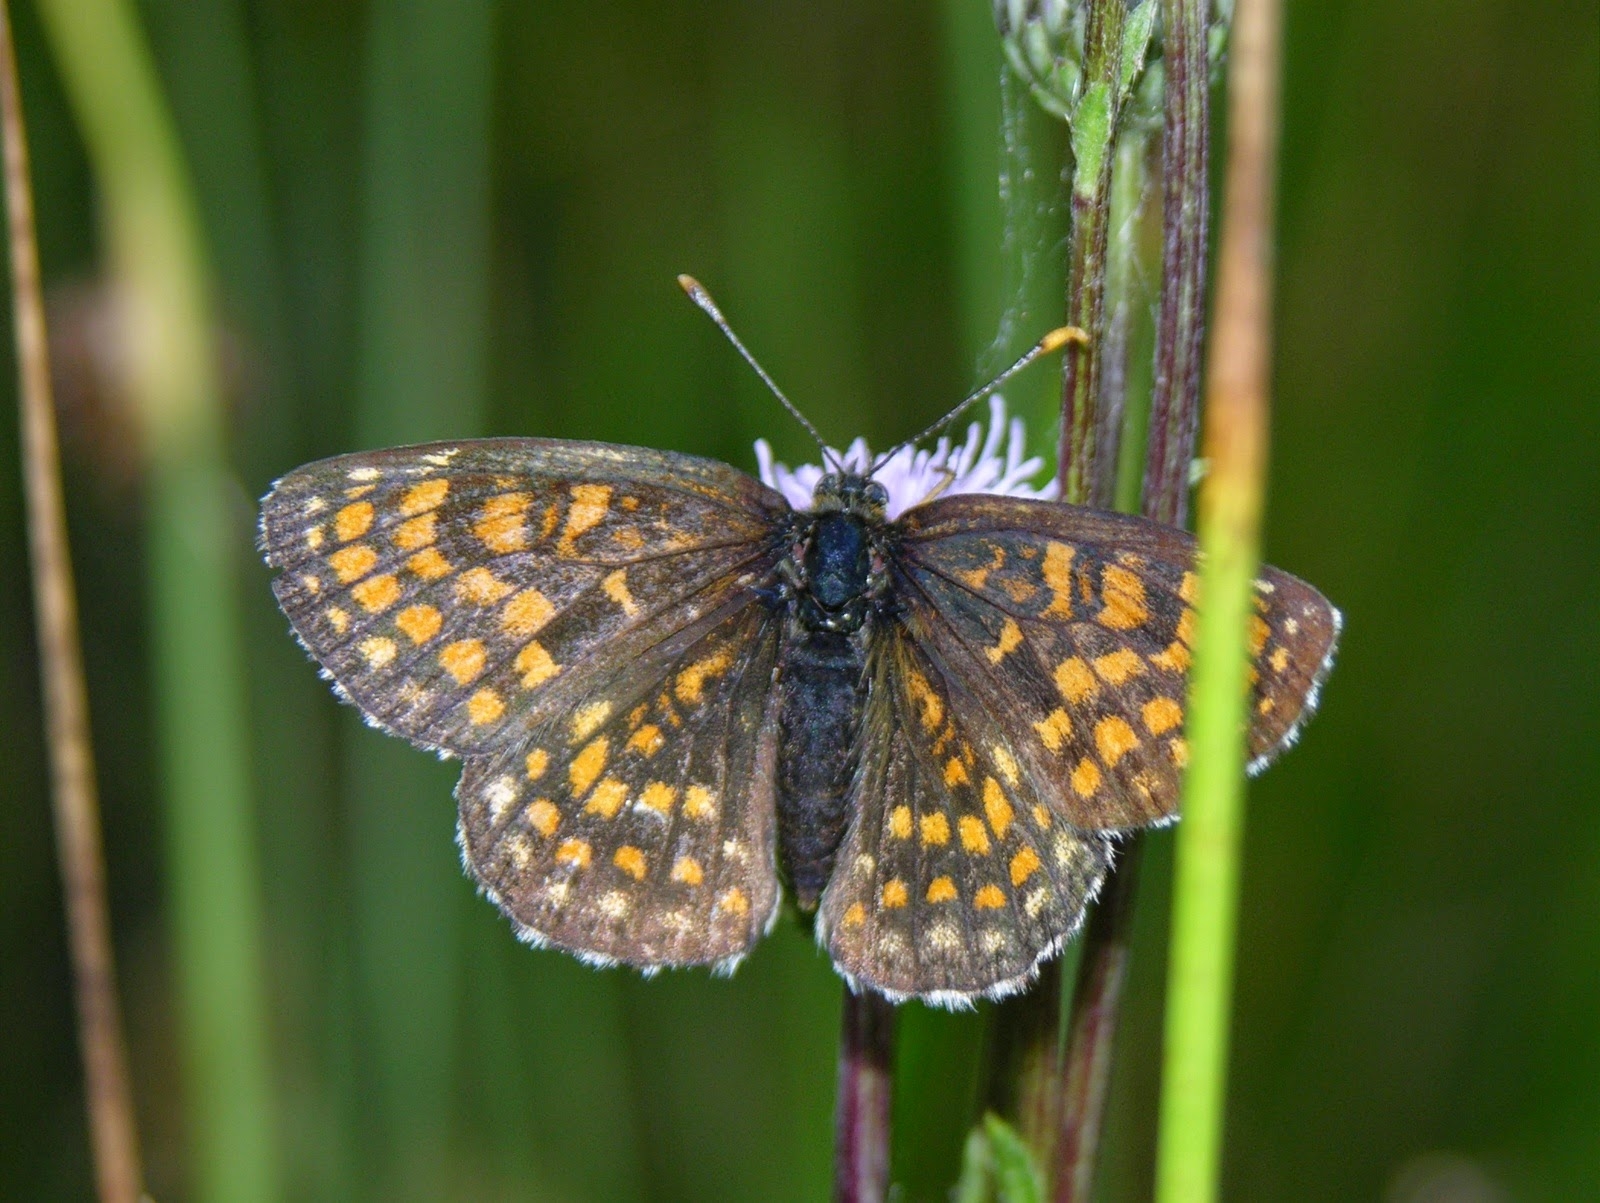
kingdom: Animalia
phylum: Arthropoda
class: Insecta
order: Lepidoptera
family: Nymphalidae
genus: Melitaea
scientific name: Melitaea athalia
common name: Heath fritillary
